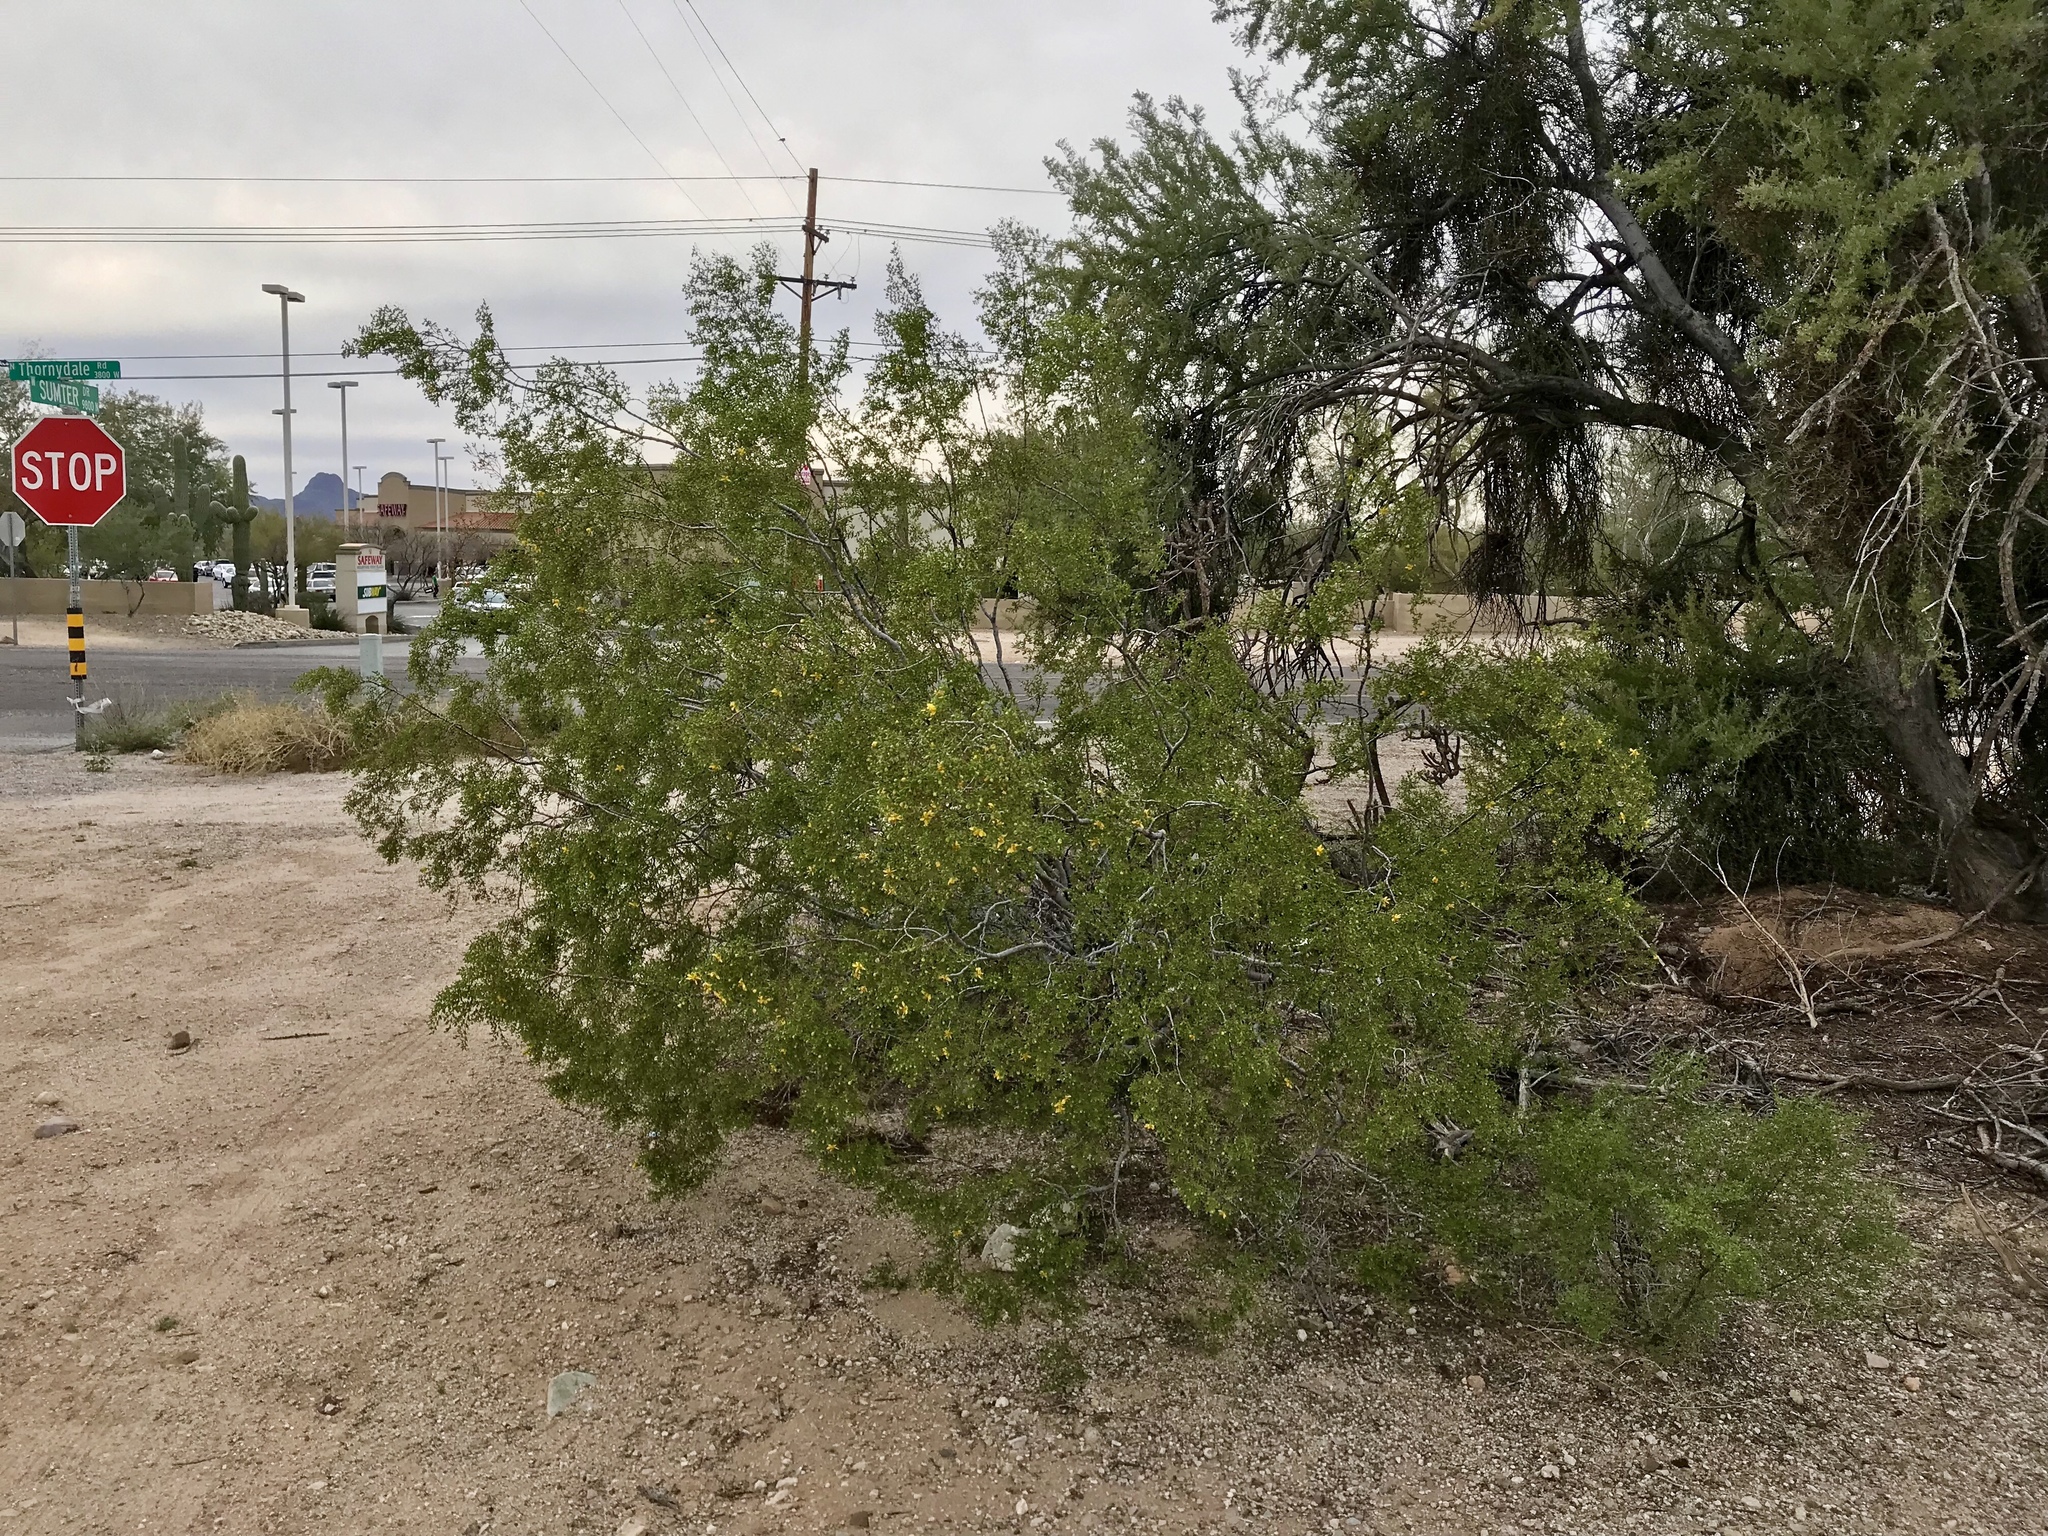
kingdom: Plantae
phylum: Tracheophyta
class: Magnoliopsida
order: Zygophyllales
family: Zygophyllaceae
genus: Larrea
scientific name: Larrea tridentata
